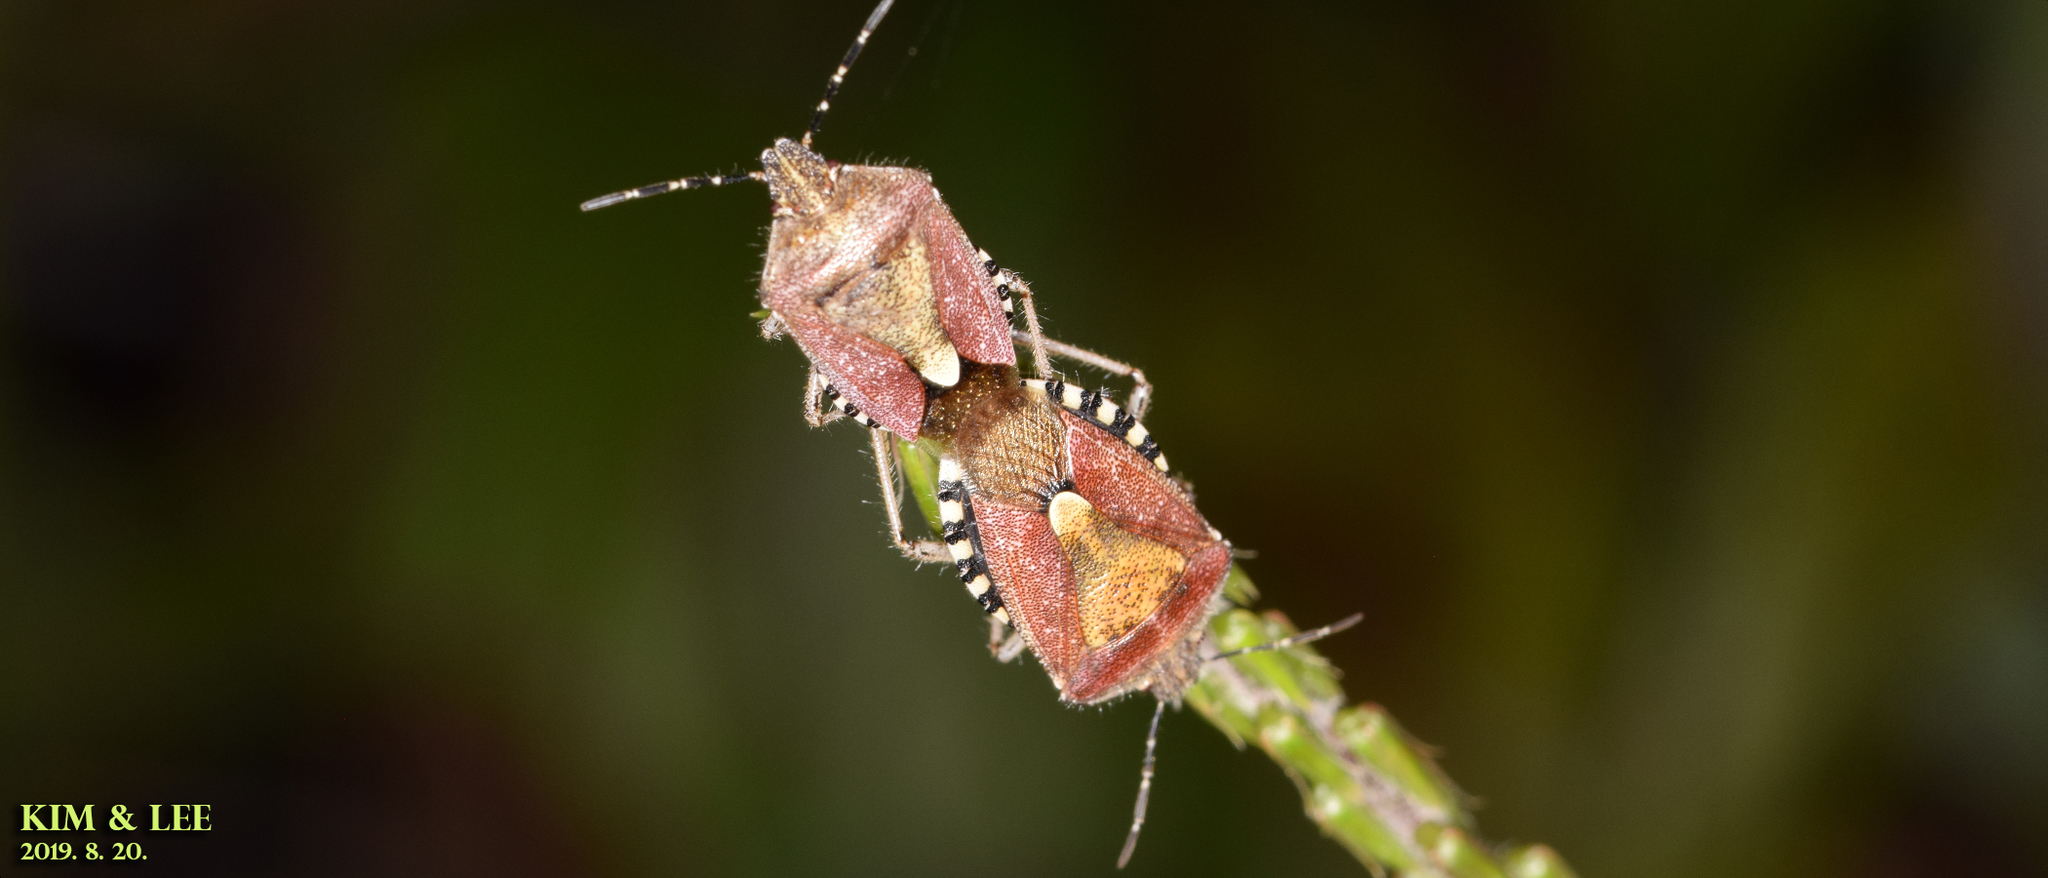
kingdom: Animalia
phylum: Arthropoda
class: Insecta
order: Hemiptera
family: Pentatomidae
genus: Dolycoris
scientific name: Dolycoris baccarum
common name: Sloe bug
